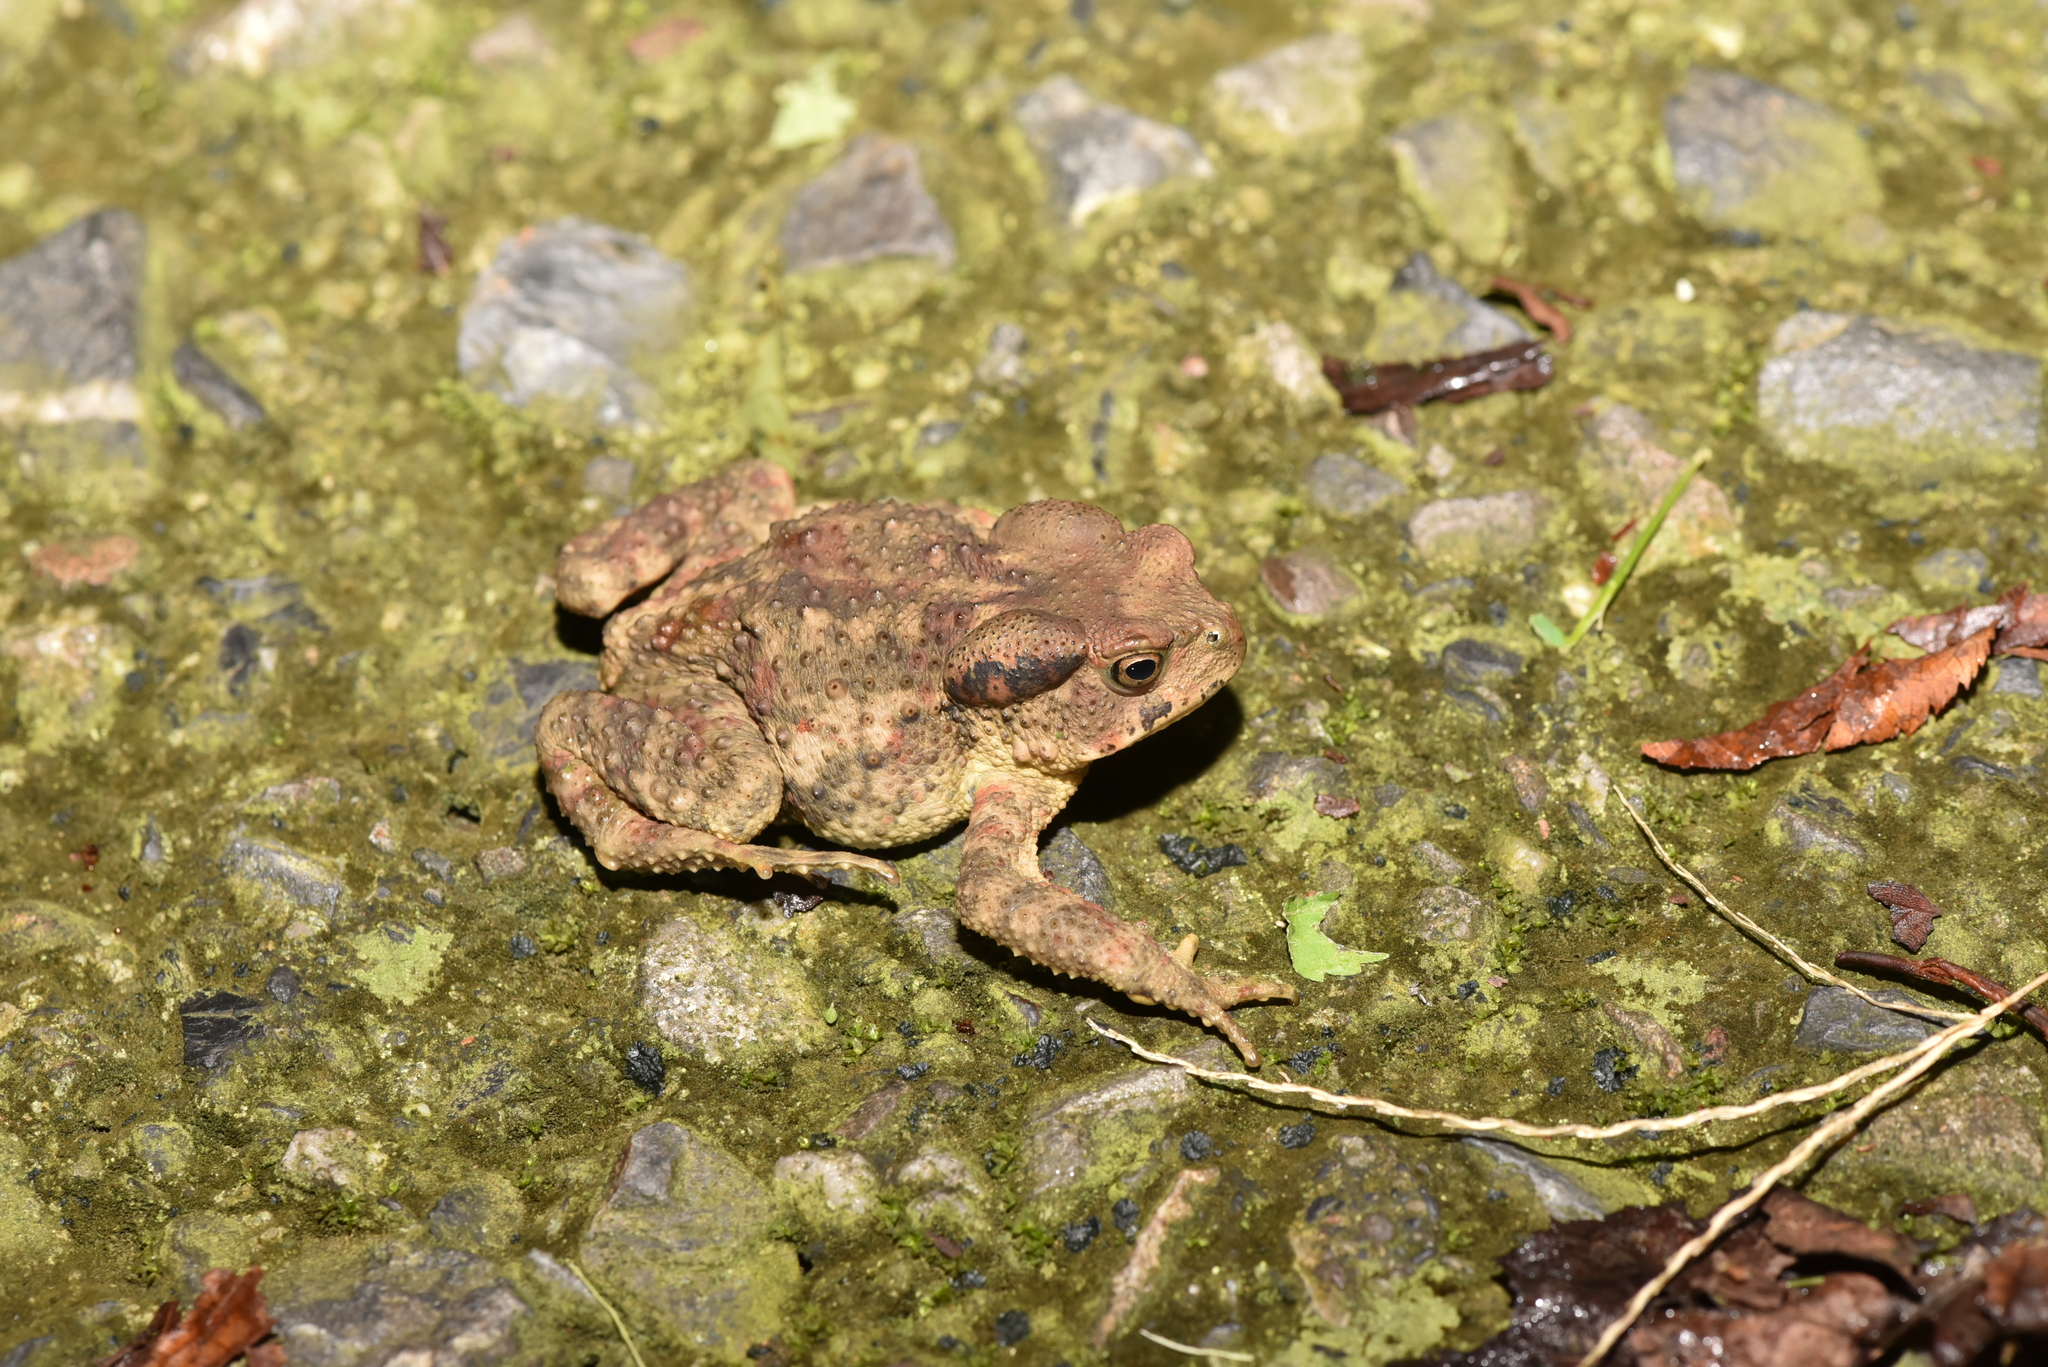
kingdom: Animalia
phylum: Chordata
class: Amphibia
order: Anura
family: Bufonidae
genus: Bufo
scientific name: Bufo bankorensis
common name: Bankor toad
